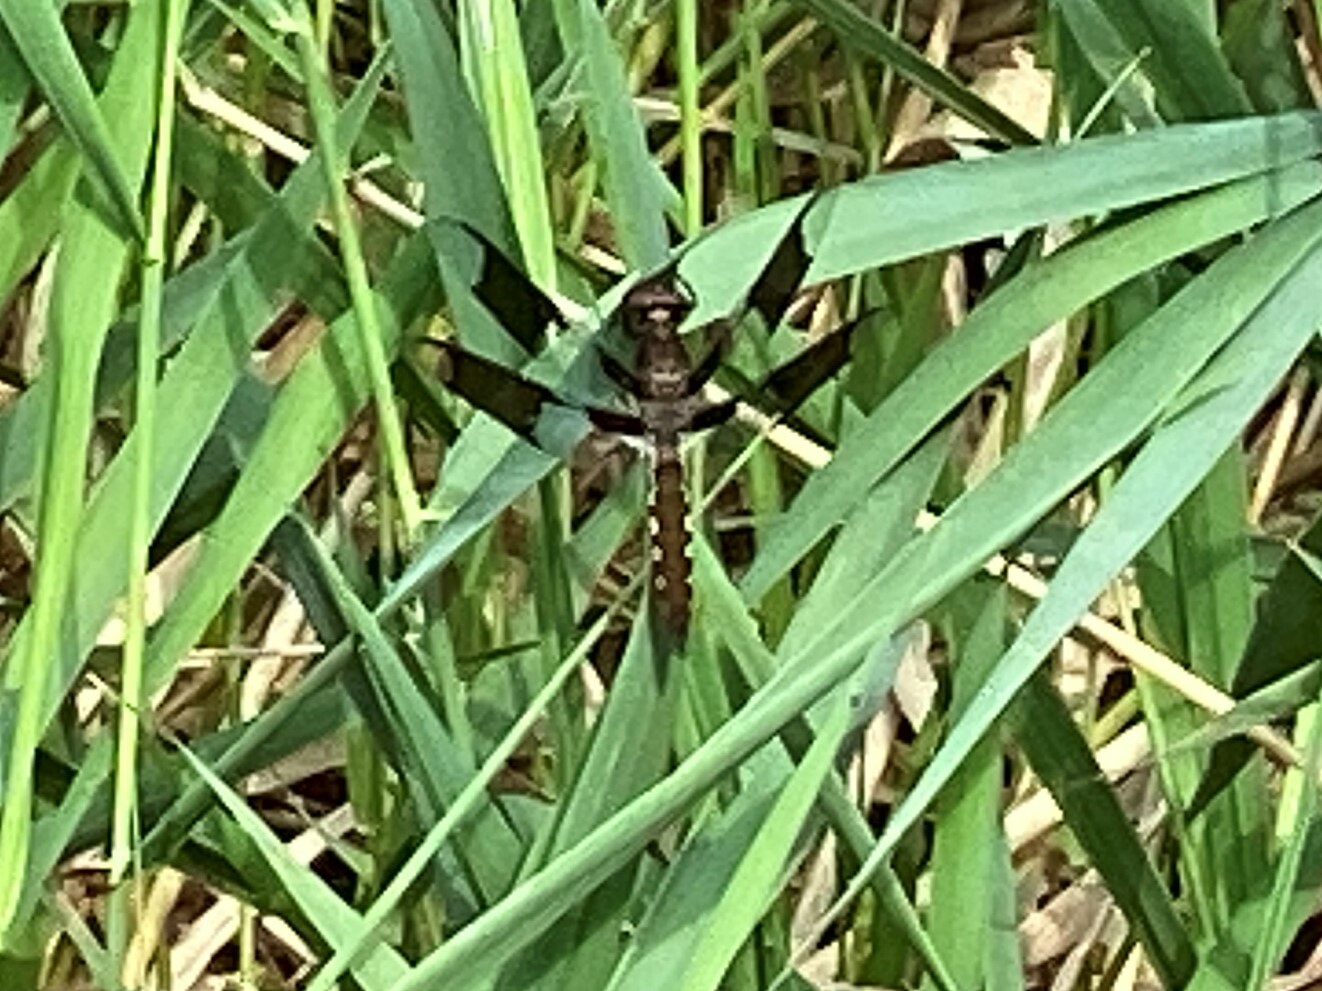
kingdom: Animalia
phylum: Arthropoda
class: Insecta
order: Odonata
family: Libellulidae
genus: Plathemis
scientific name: Plathemis lydia
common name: Common whitetail
